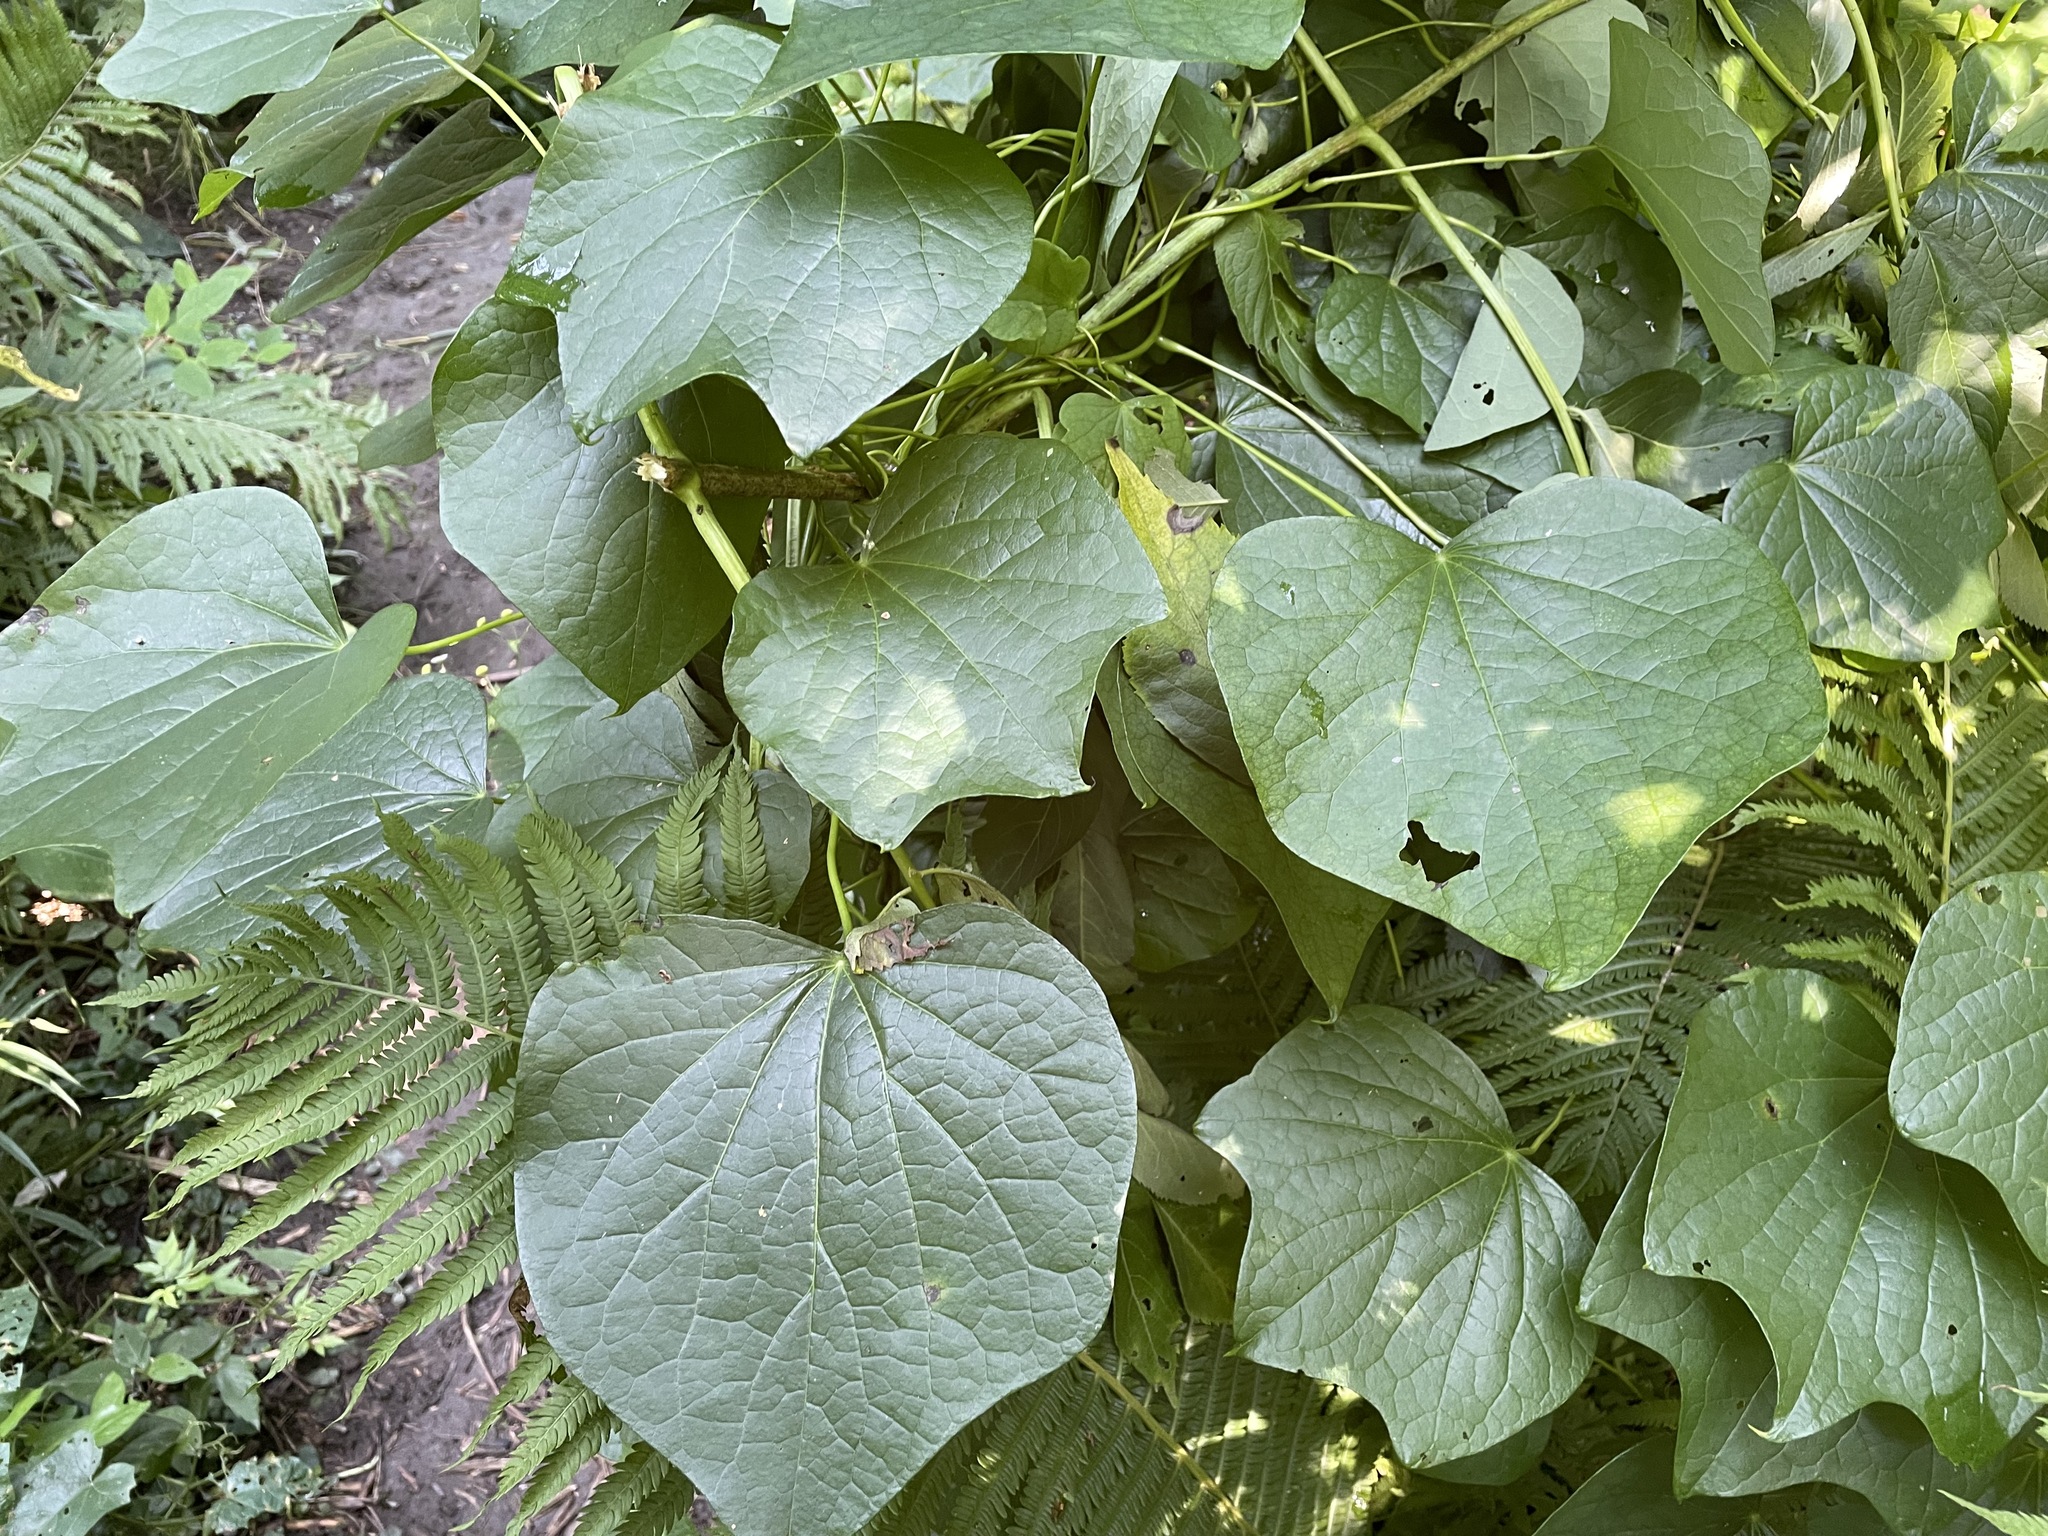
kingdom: Plantae
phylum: Tracheophyta
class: Magnoliopsida
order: Ranunculales
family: Menispermaceae
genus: Menispermum
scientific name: Menispermum canadense
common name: Moonseed
